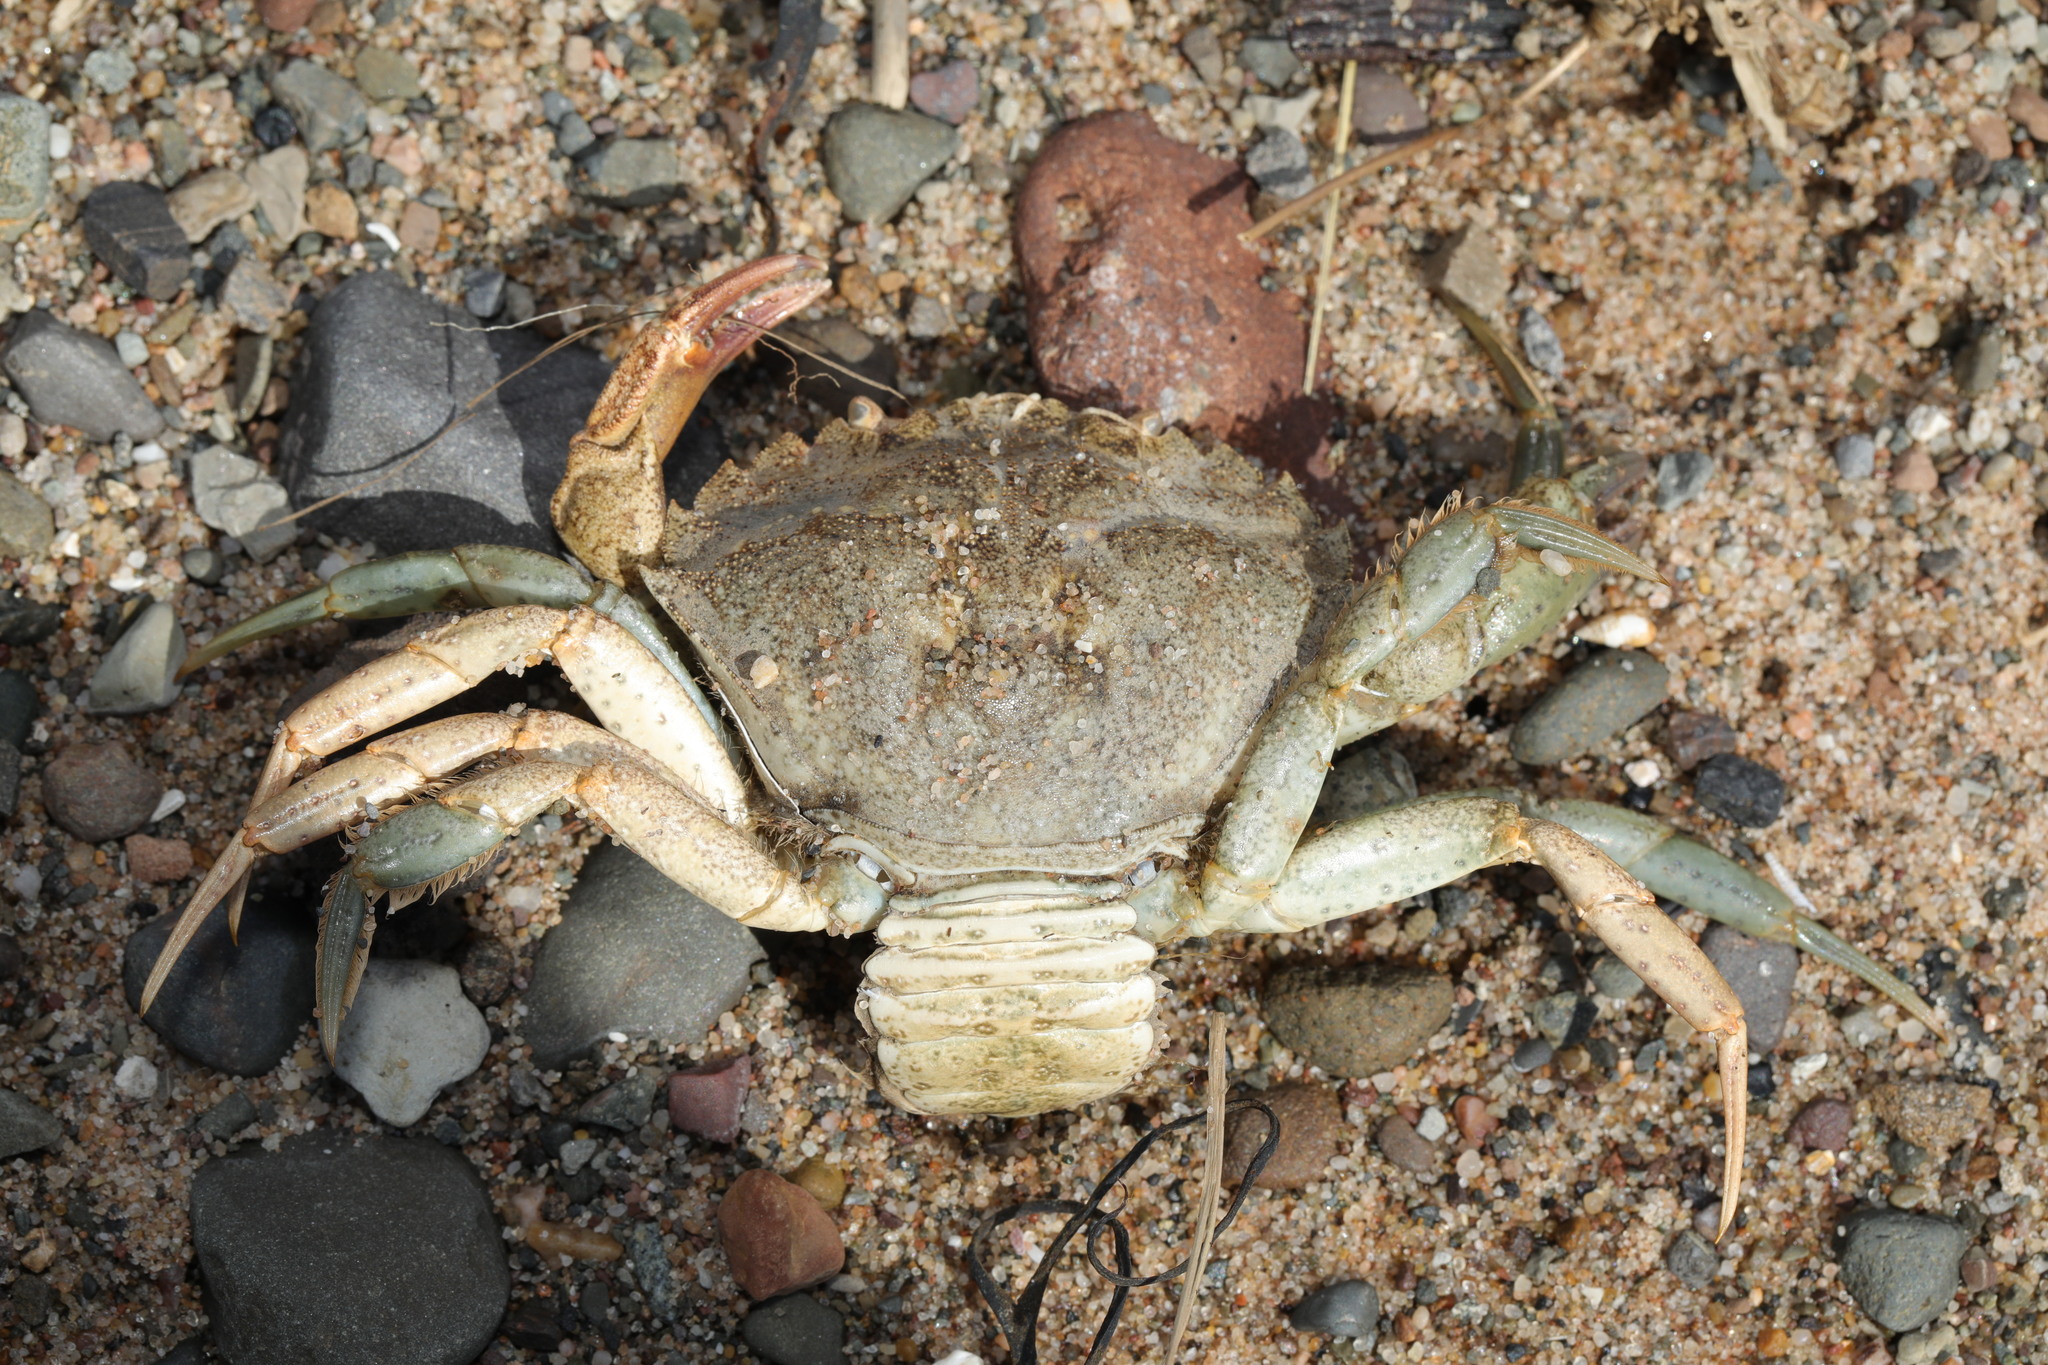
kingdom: Animalia
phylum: Arthropoda
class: Malacostraca
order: Decapoda
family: Carcinidae
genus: Carcinus
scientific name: Carcinus maenas
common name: European green crab
